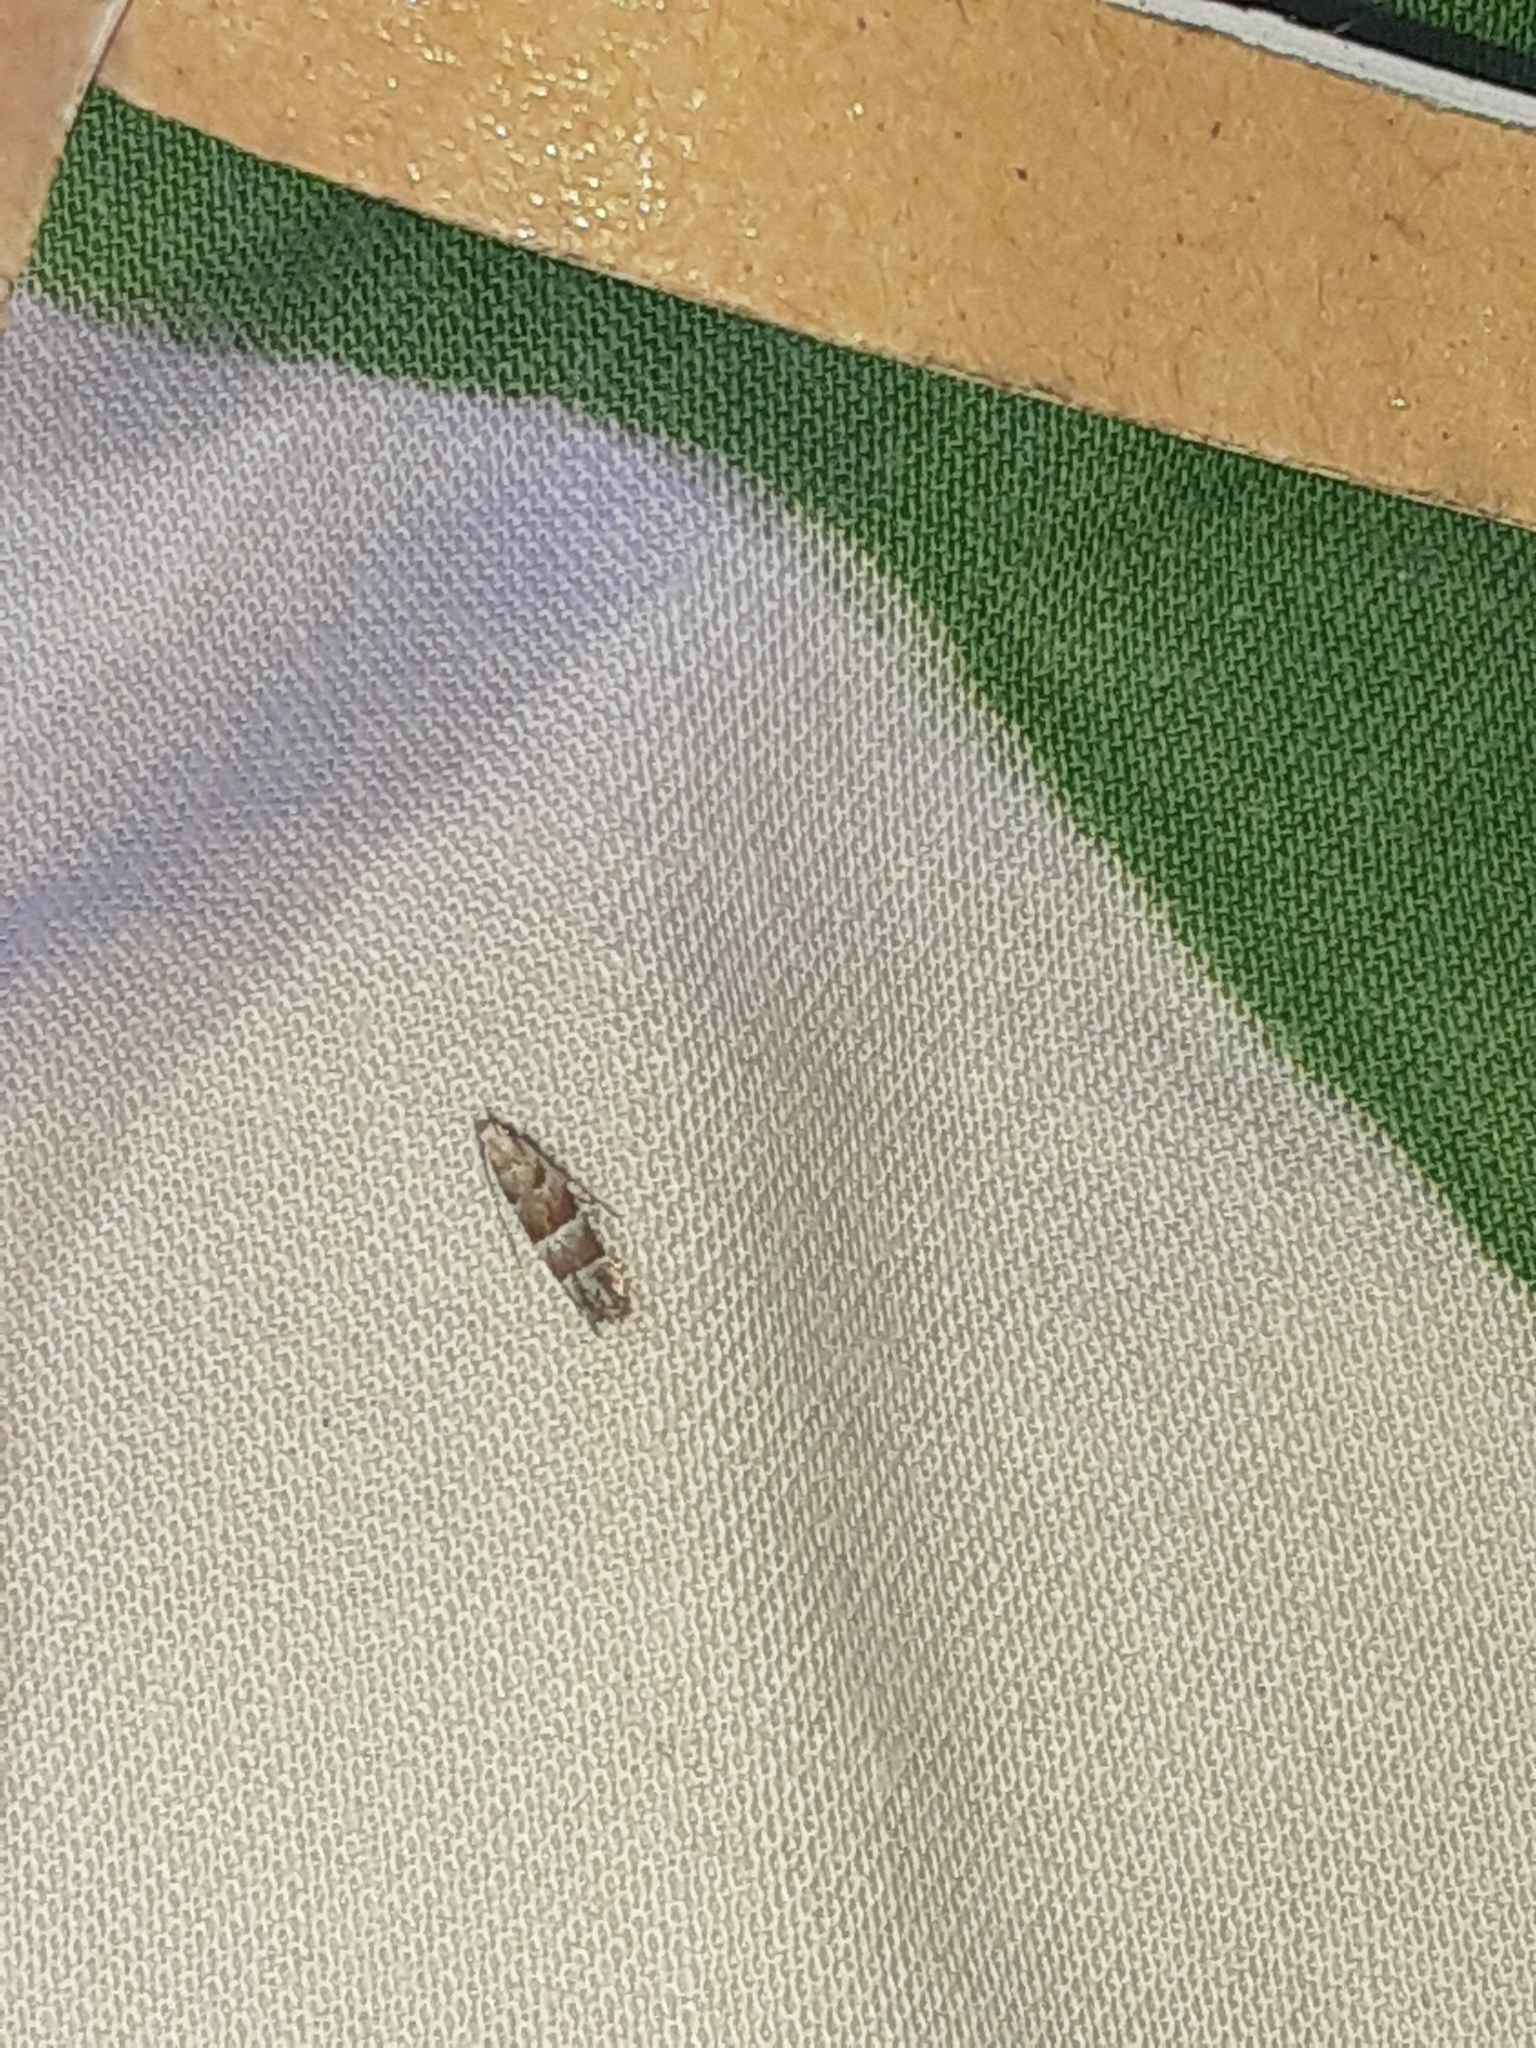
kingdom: Animalia
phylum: Arthropoda
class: Insecta
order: Lepidoptera
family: Gelechiidae
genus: Battaristis
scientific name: Battaristis vittella
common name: Orange stripe-backed moth
